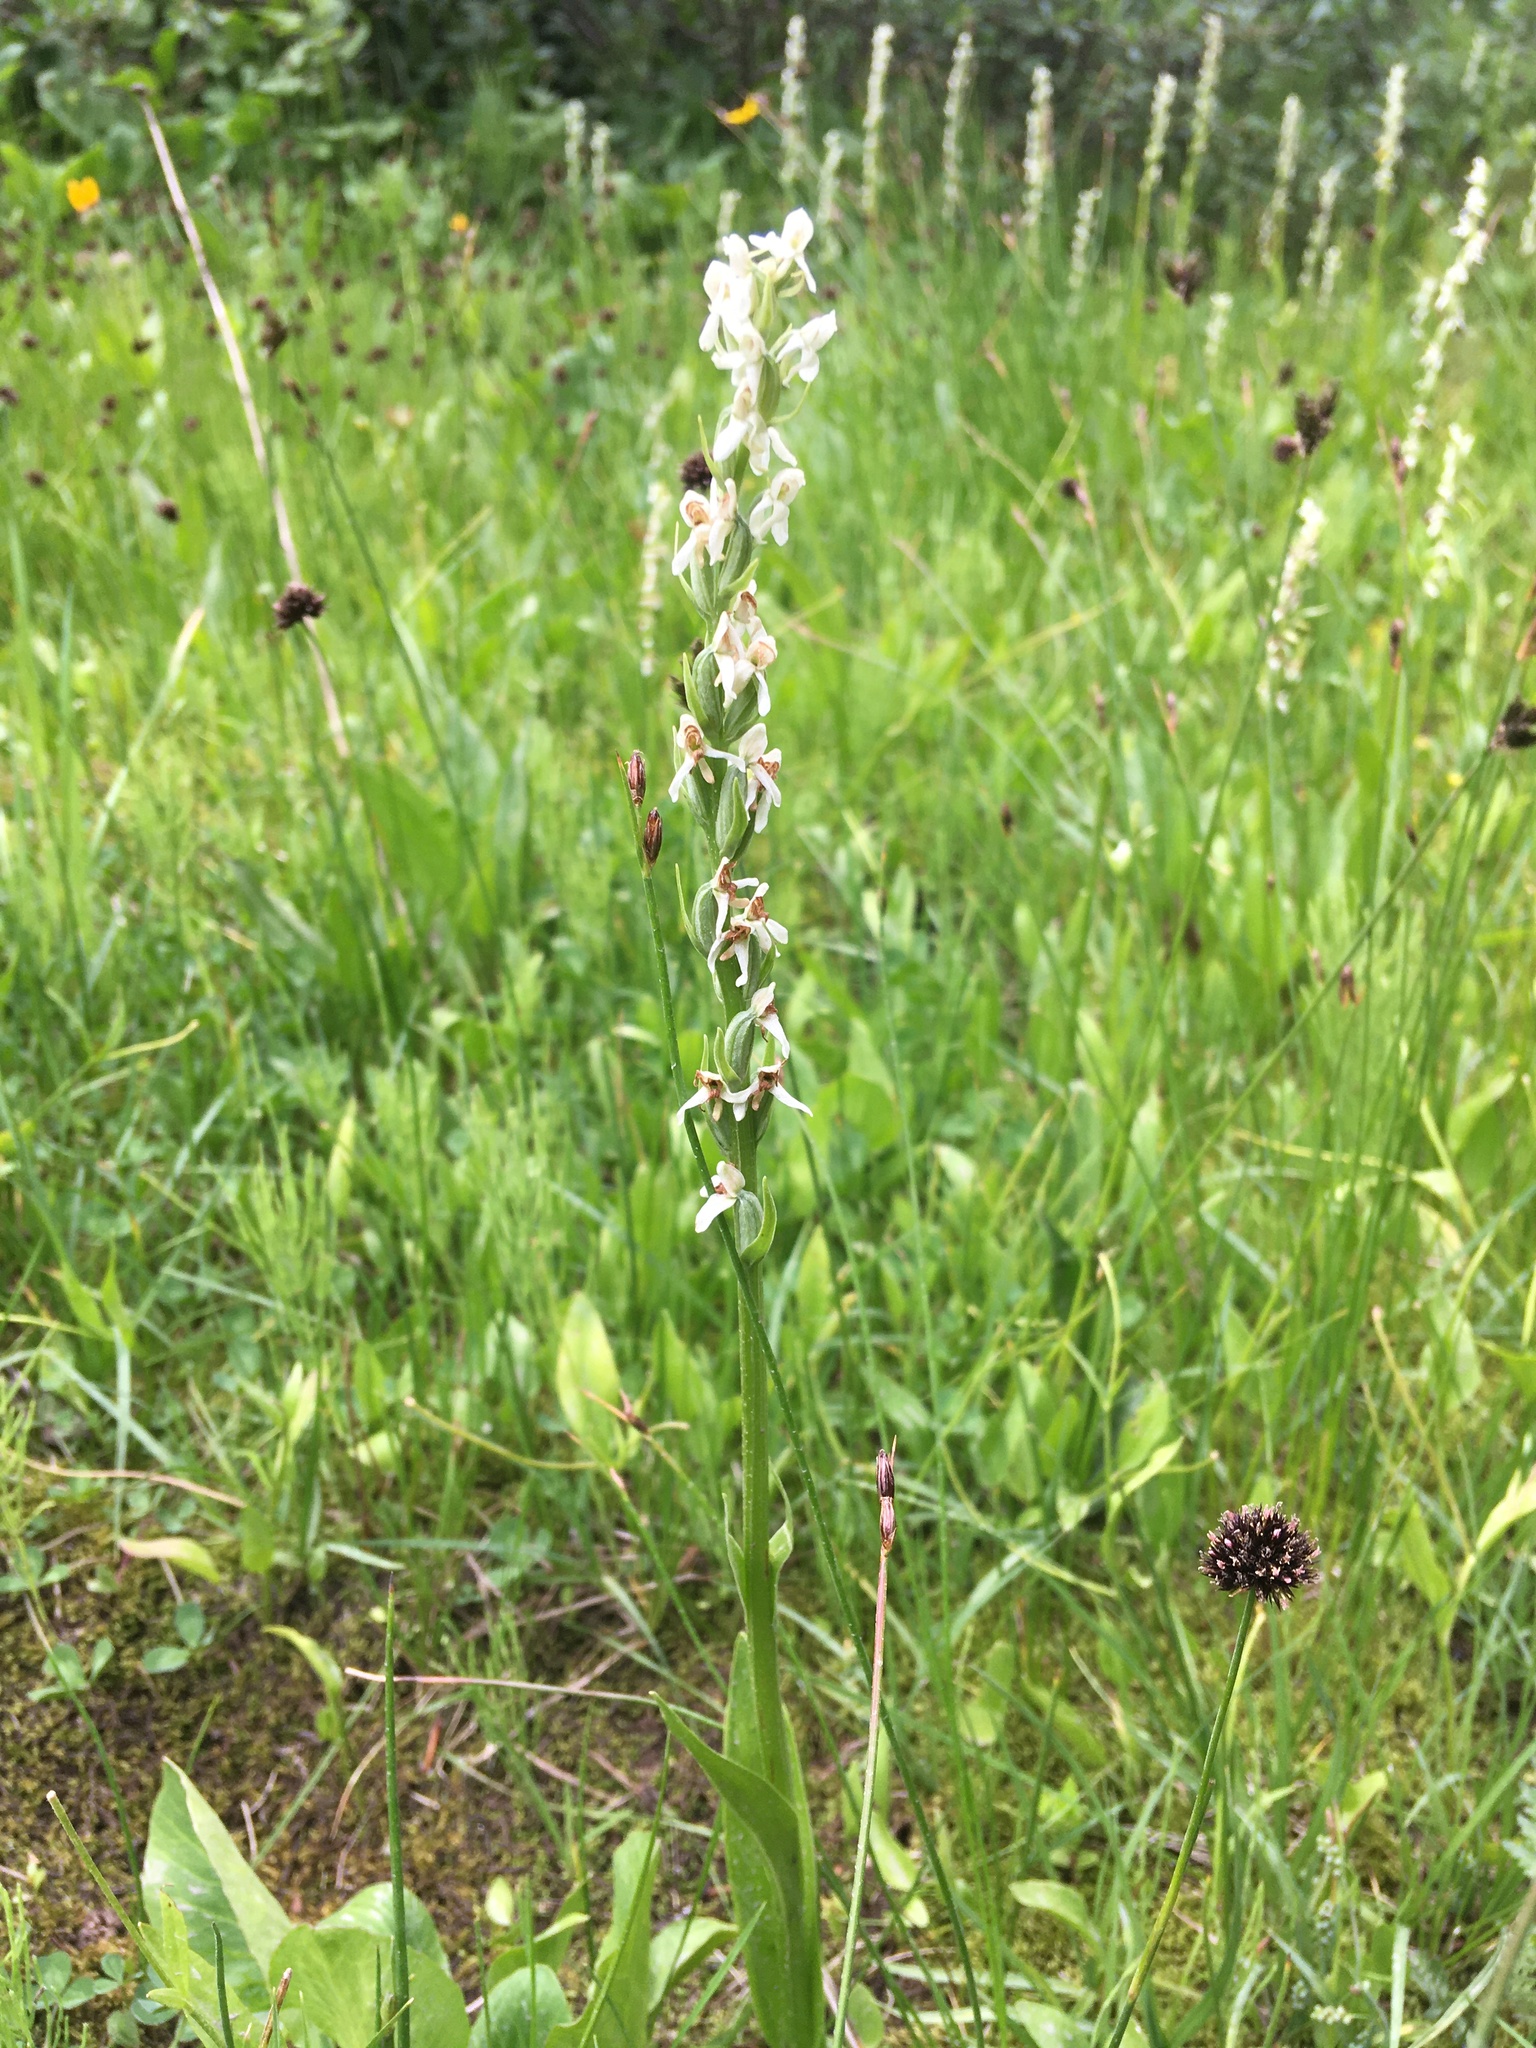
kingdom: Plantae
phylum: Tracheophyta
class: Liliopsida
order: Asparagales
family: Orchidaceae
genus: Platanthera
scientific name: Platanthera dilatata
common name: Bog candles
